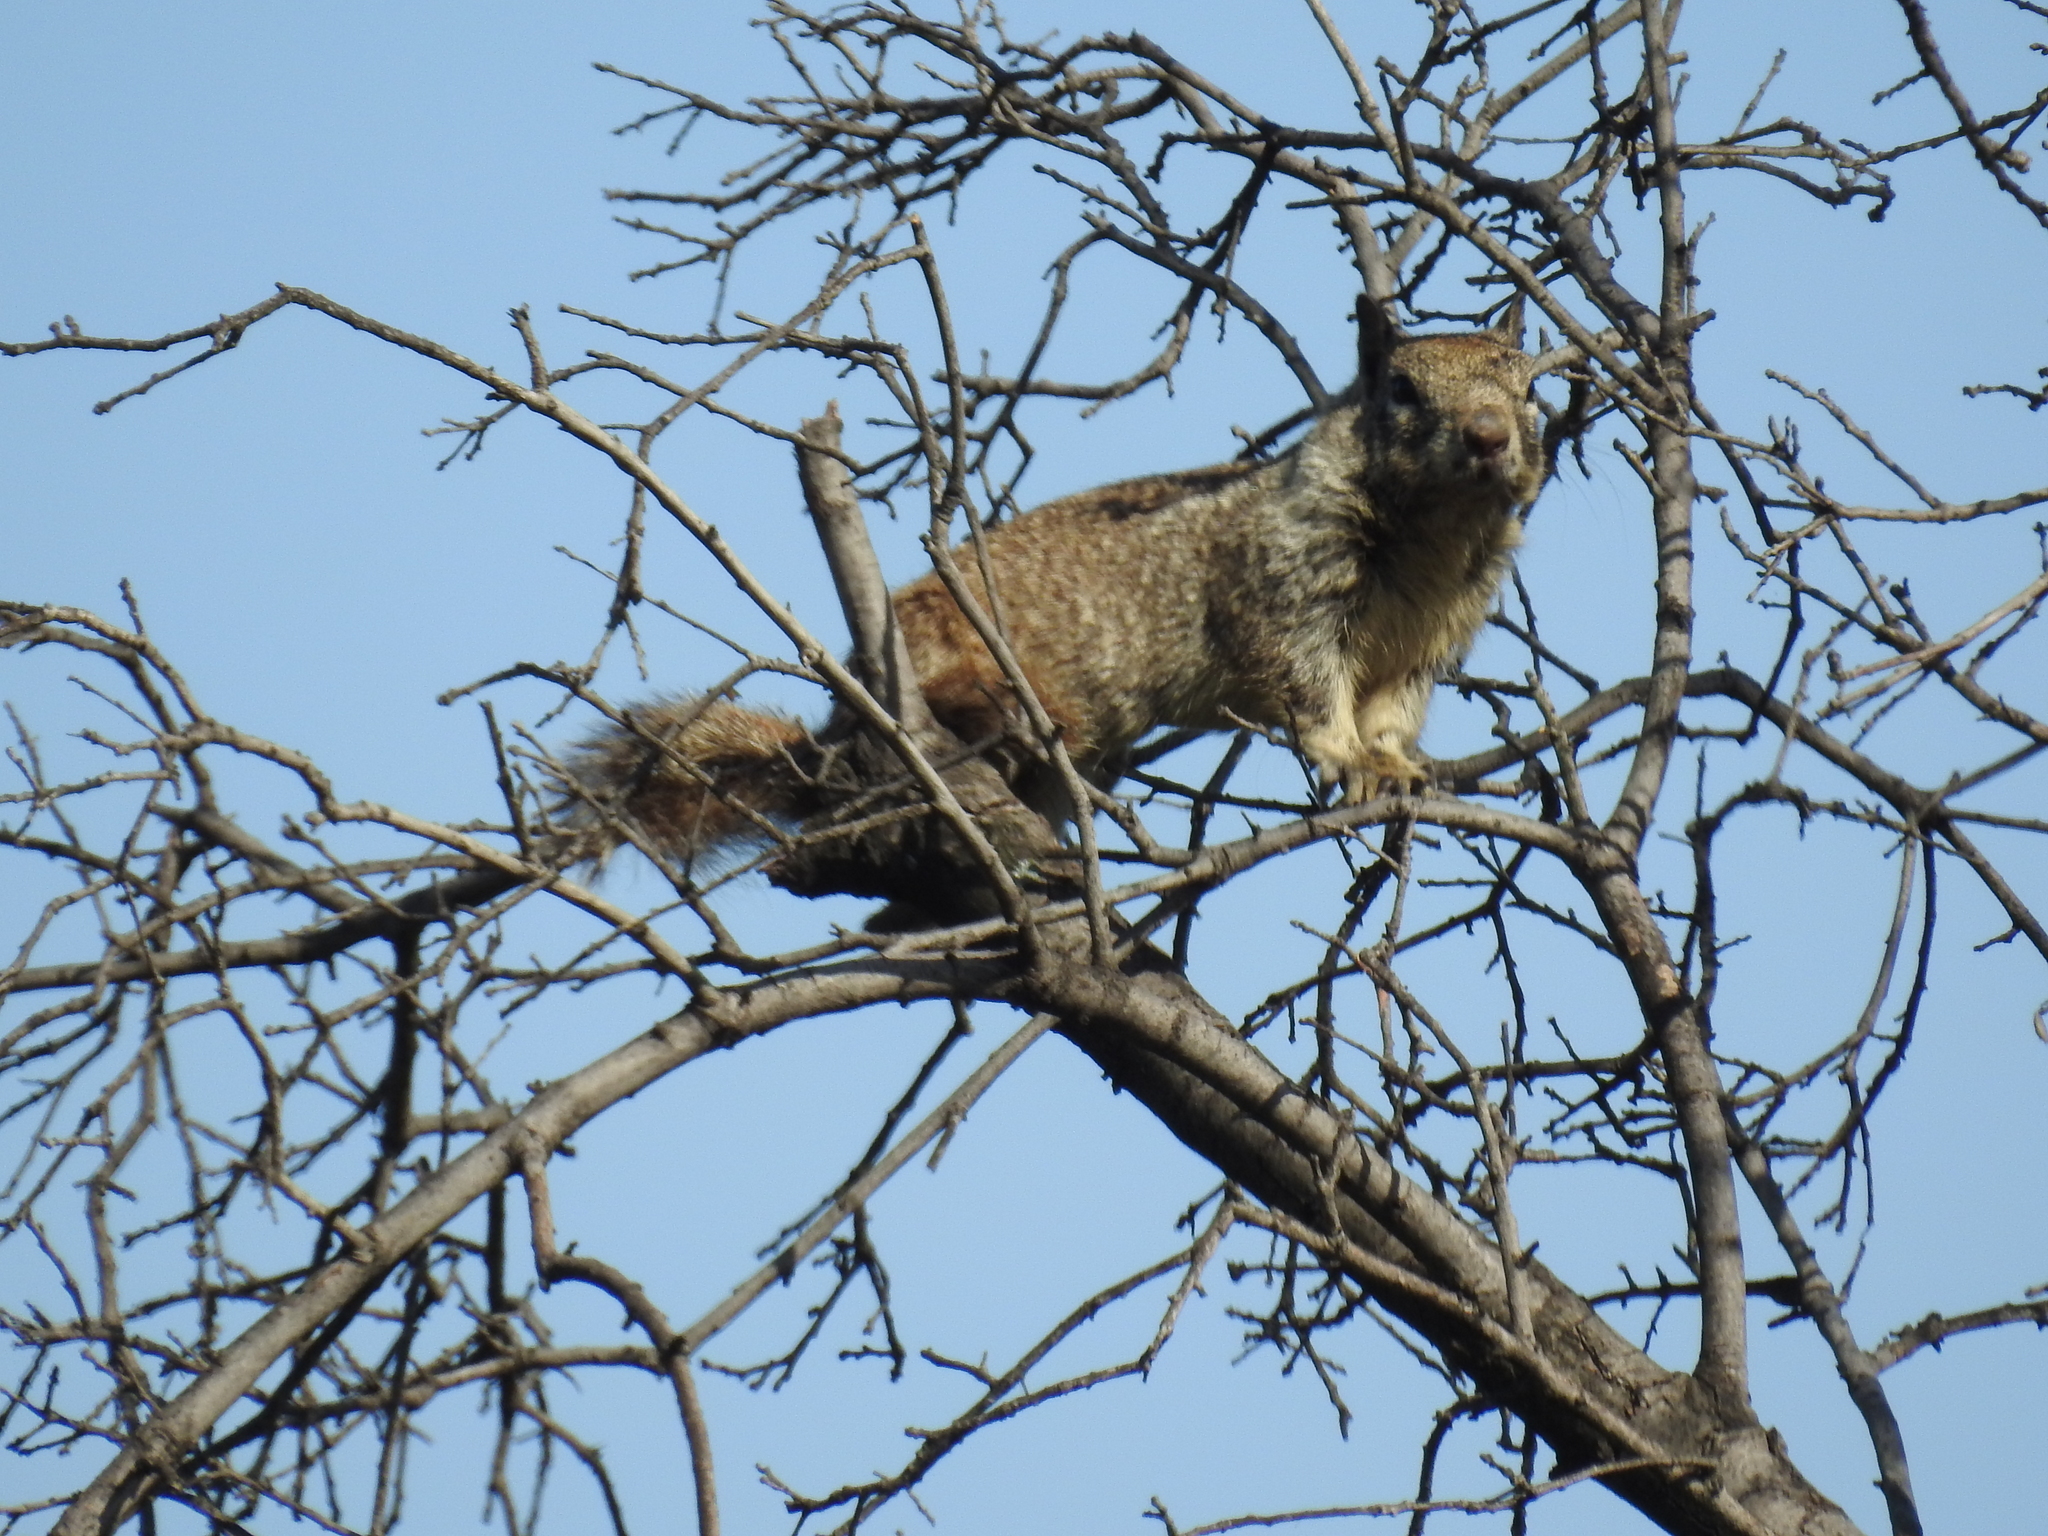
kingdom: Animalia
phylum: Chordata
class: Mammalia
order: Rodentia
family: Sciuridae
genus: Otospermophilus
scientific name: Otospermophilus beecheyi
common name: California ground squirrel
